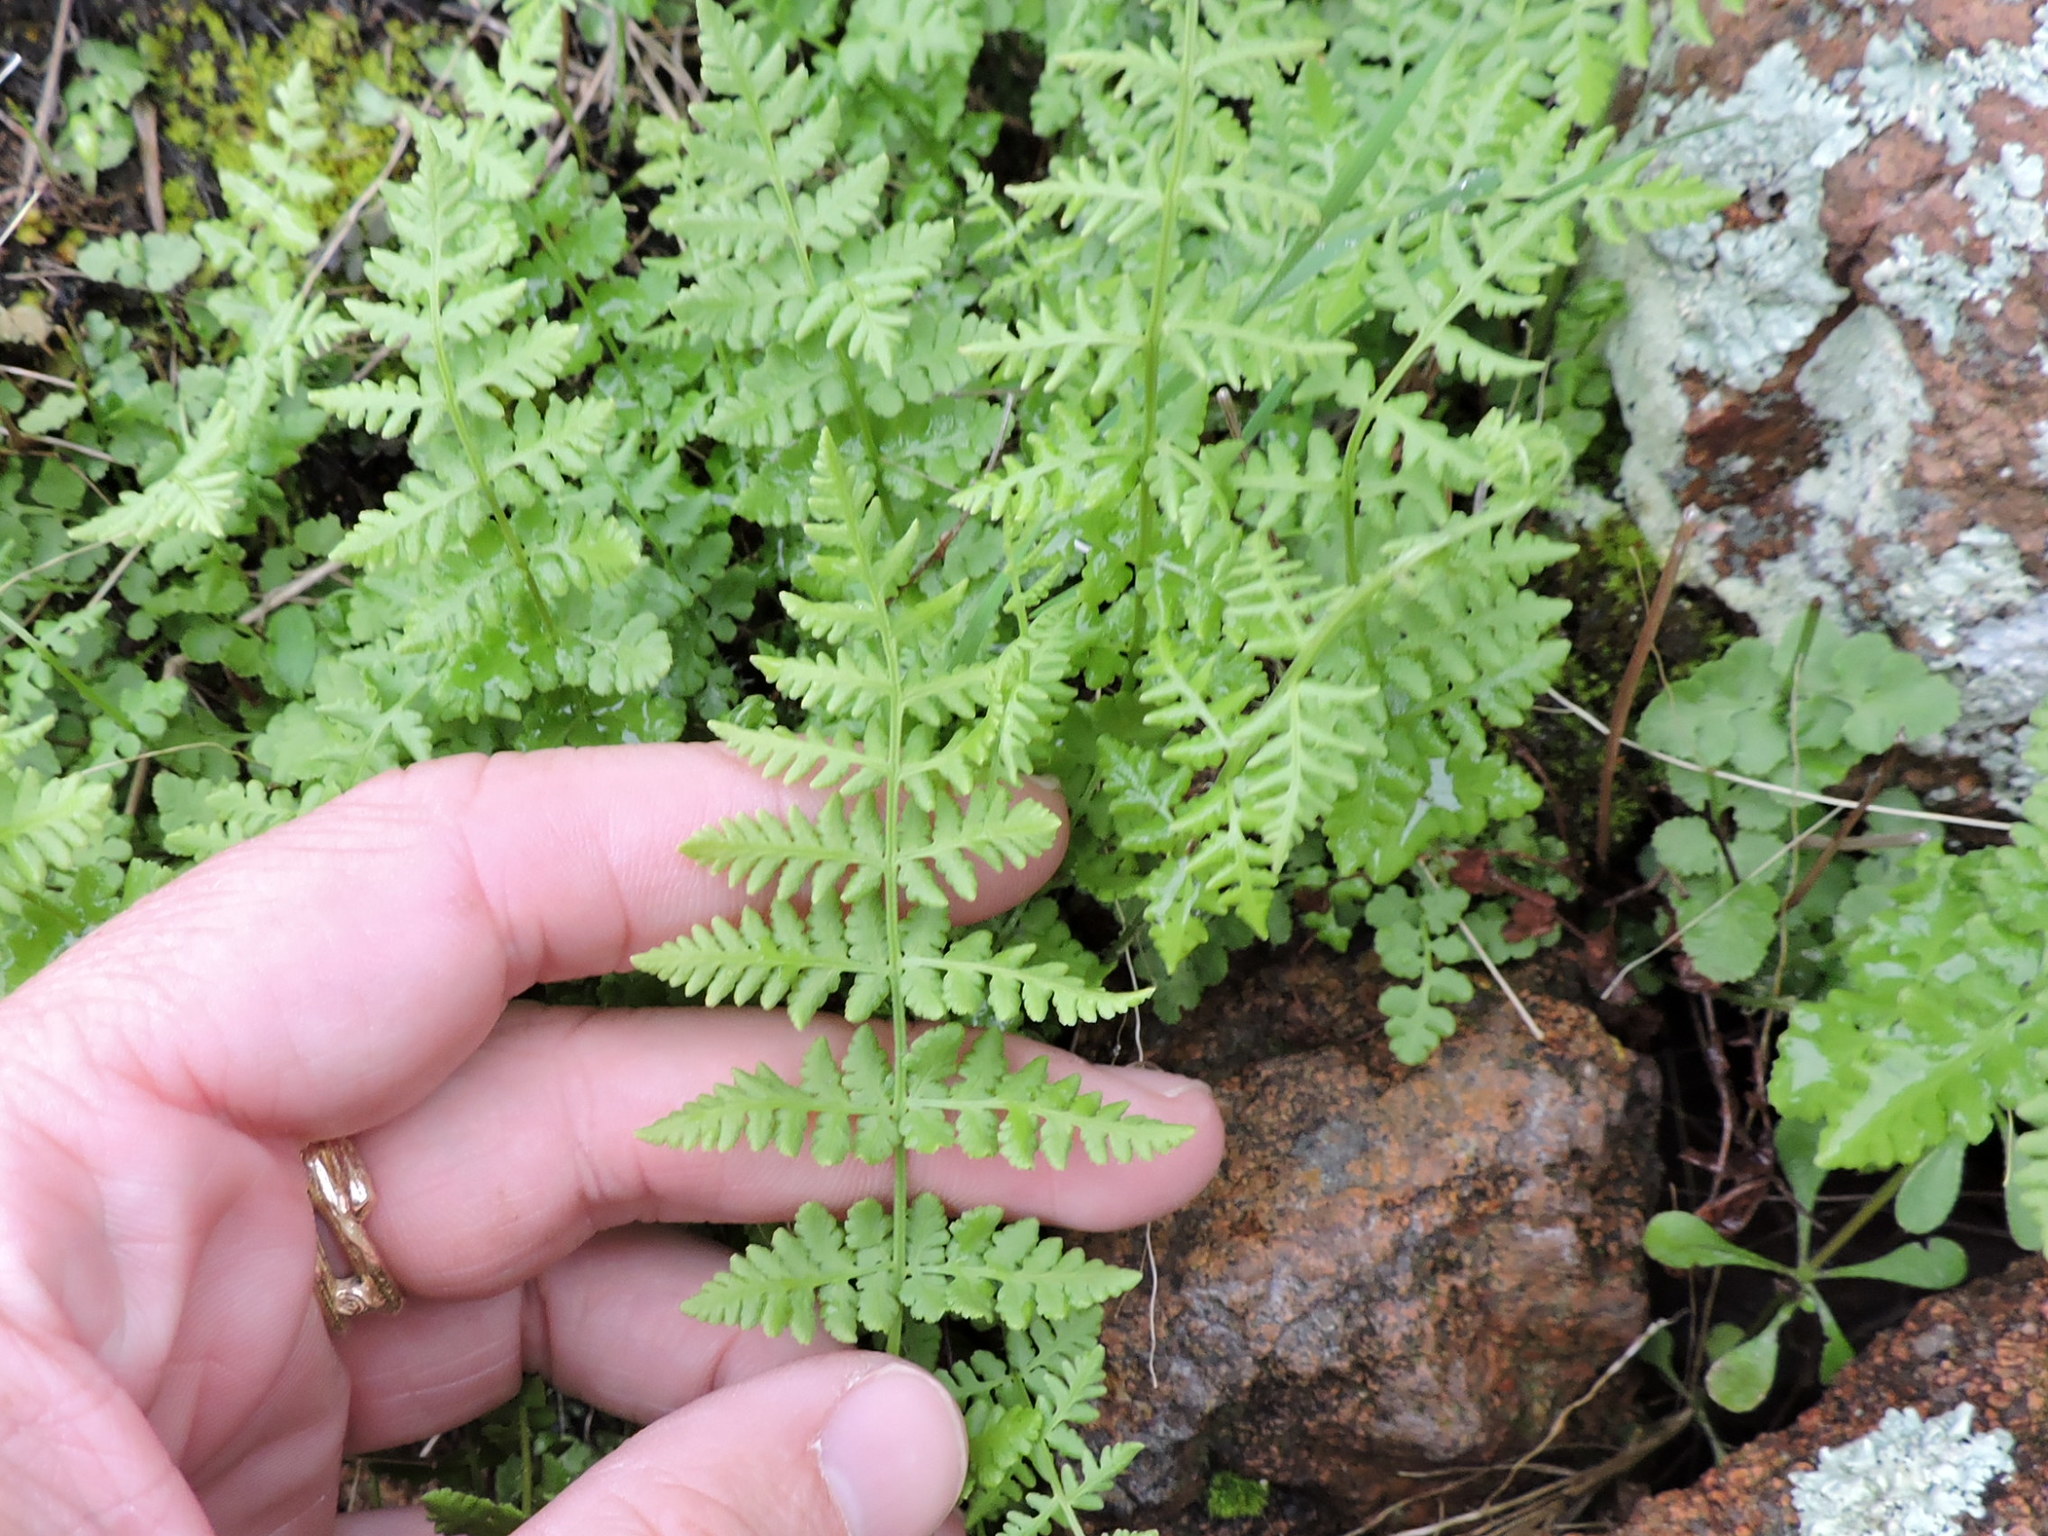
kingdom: Plantae
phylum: Tracheophyta
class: Polypodiopsida
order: Polypodiales
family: Woodsiaceae
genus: Physematium
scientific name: Physematium obtusum
